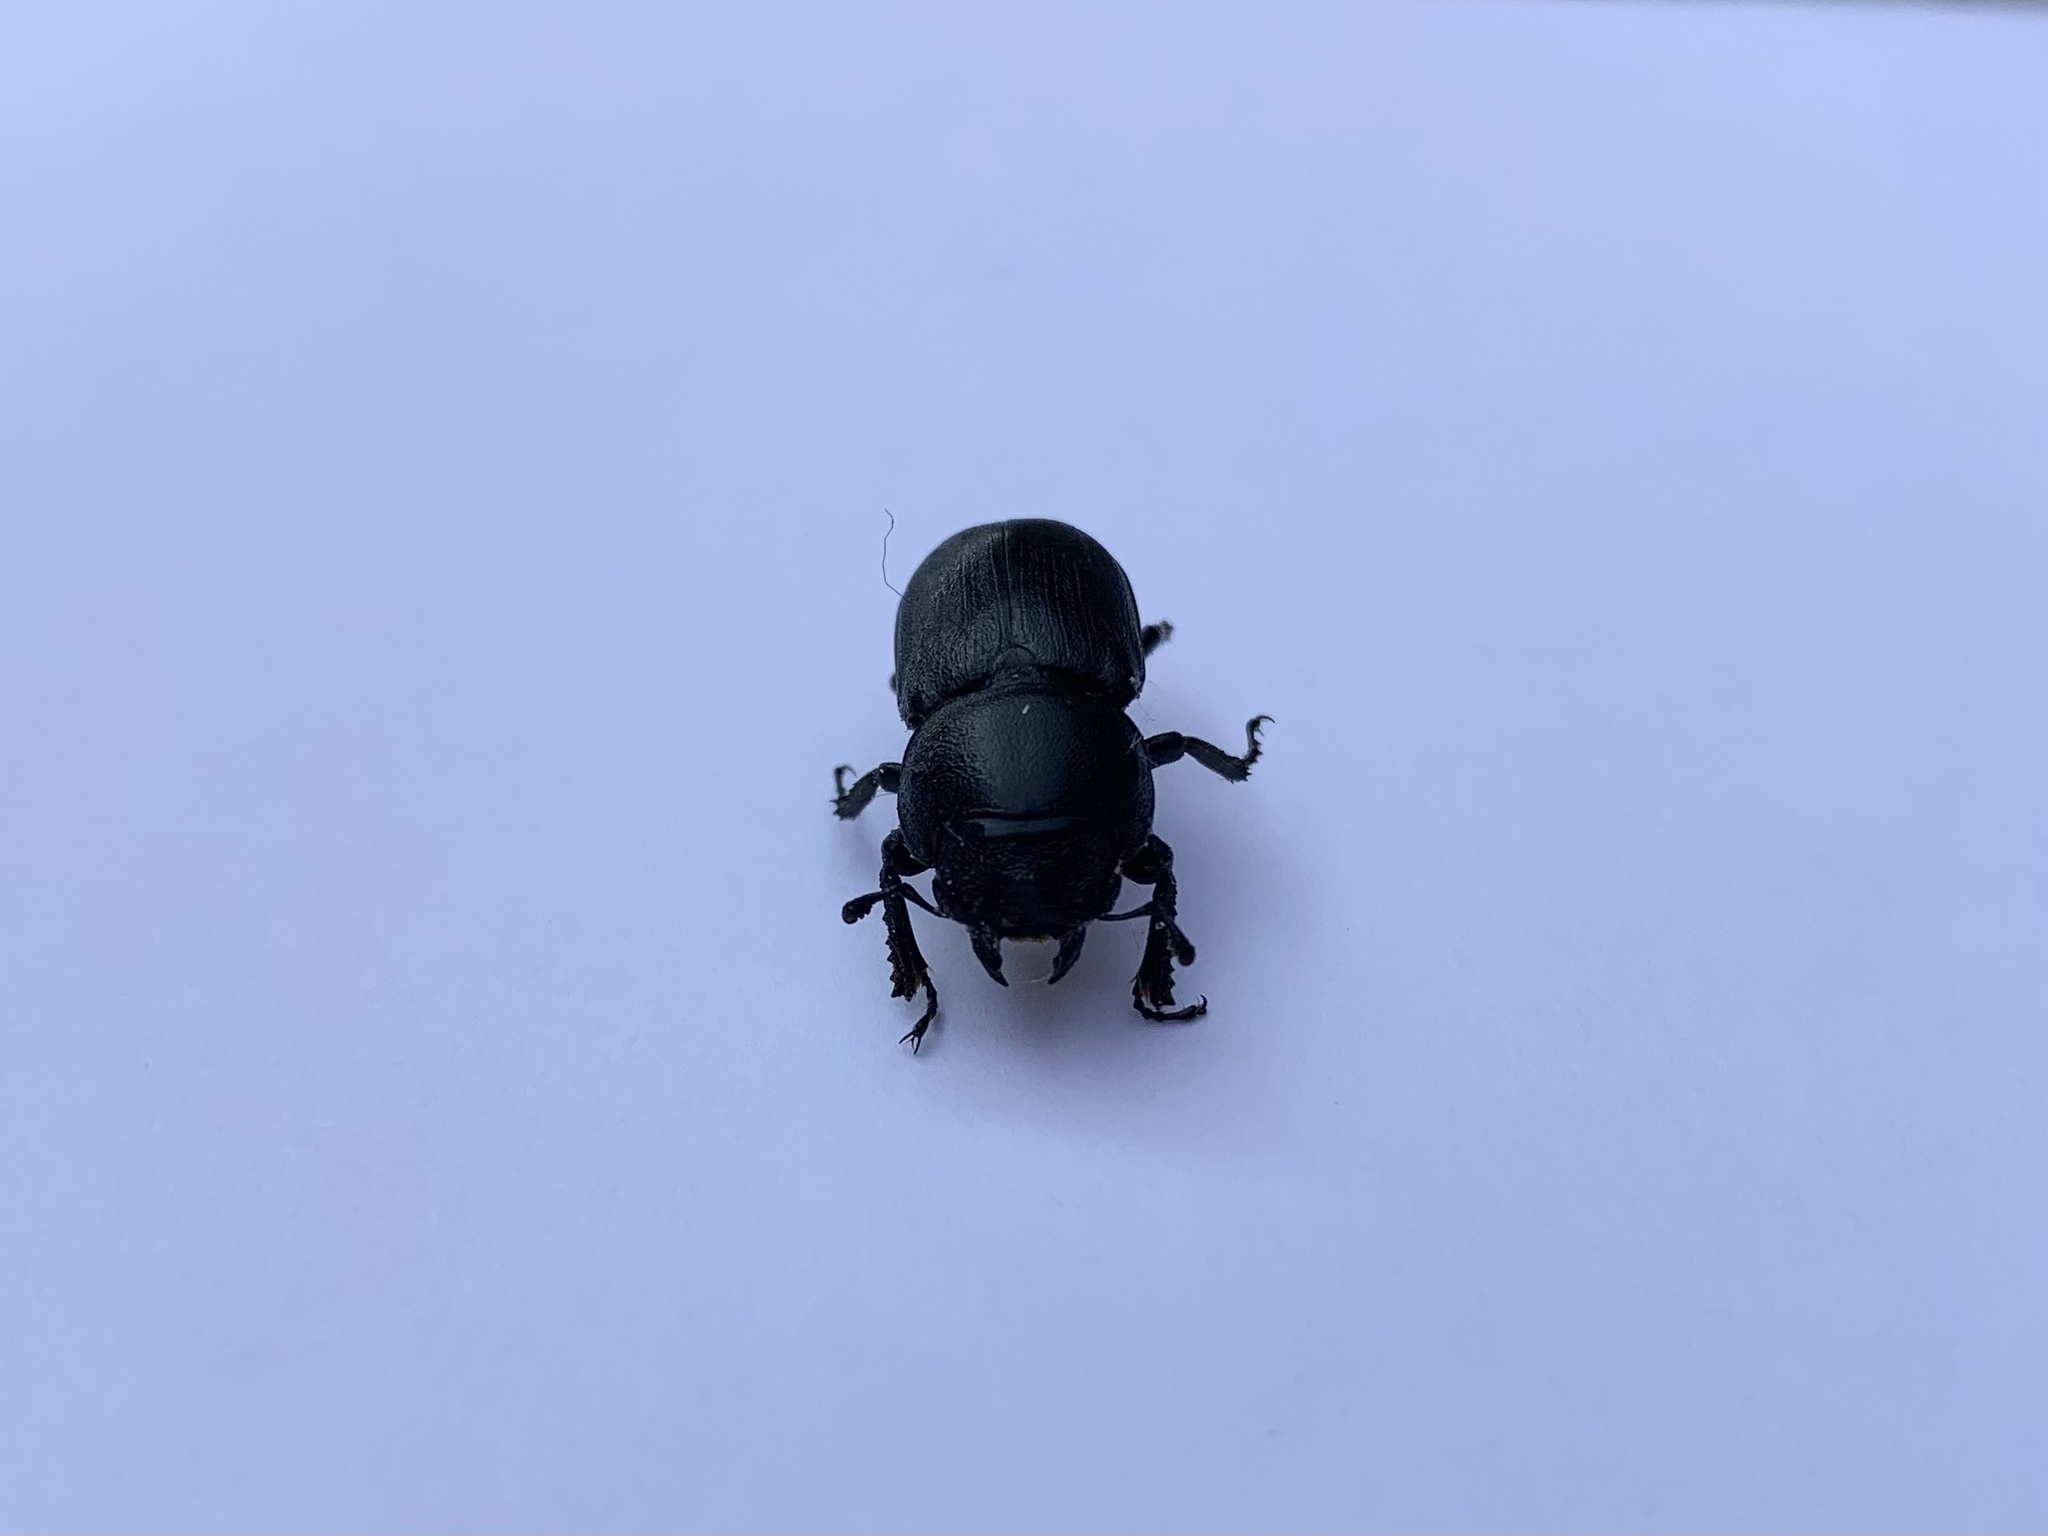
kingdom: Animalia
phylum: Arthropoda
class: Insecta
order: Coleoptera
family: Lucanidae
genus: Dorcus
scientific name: Dorcus parallelipipedus
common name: Lesser stag beetle
